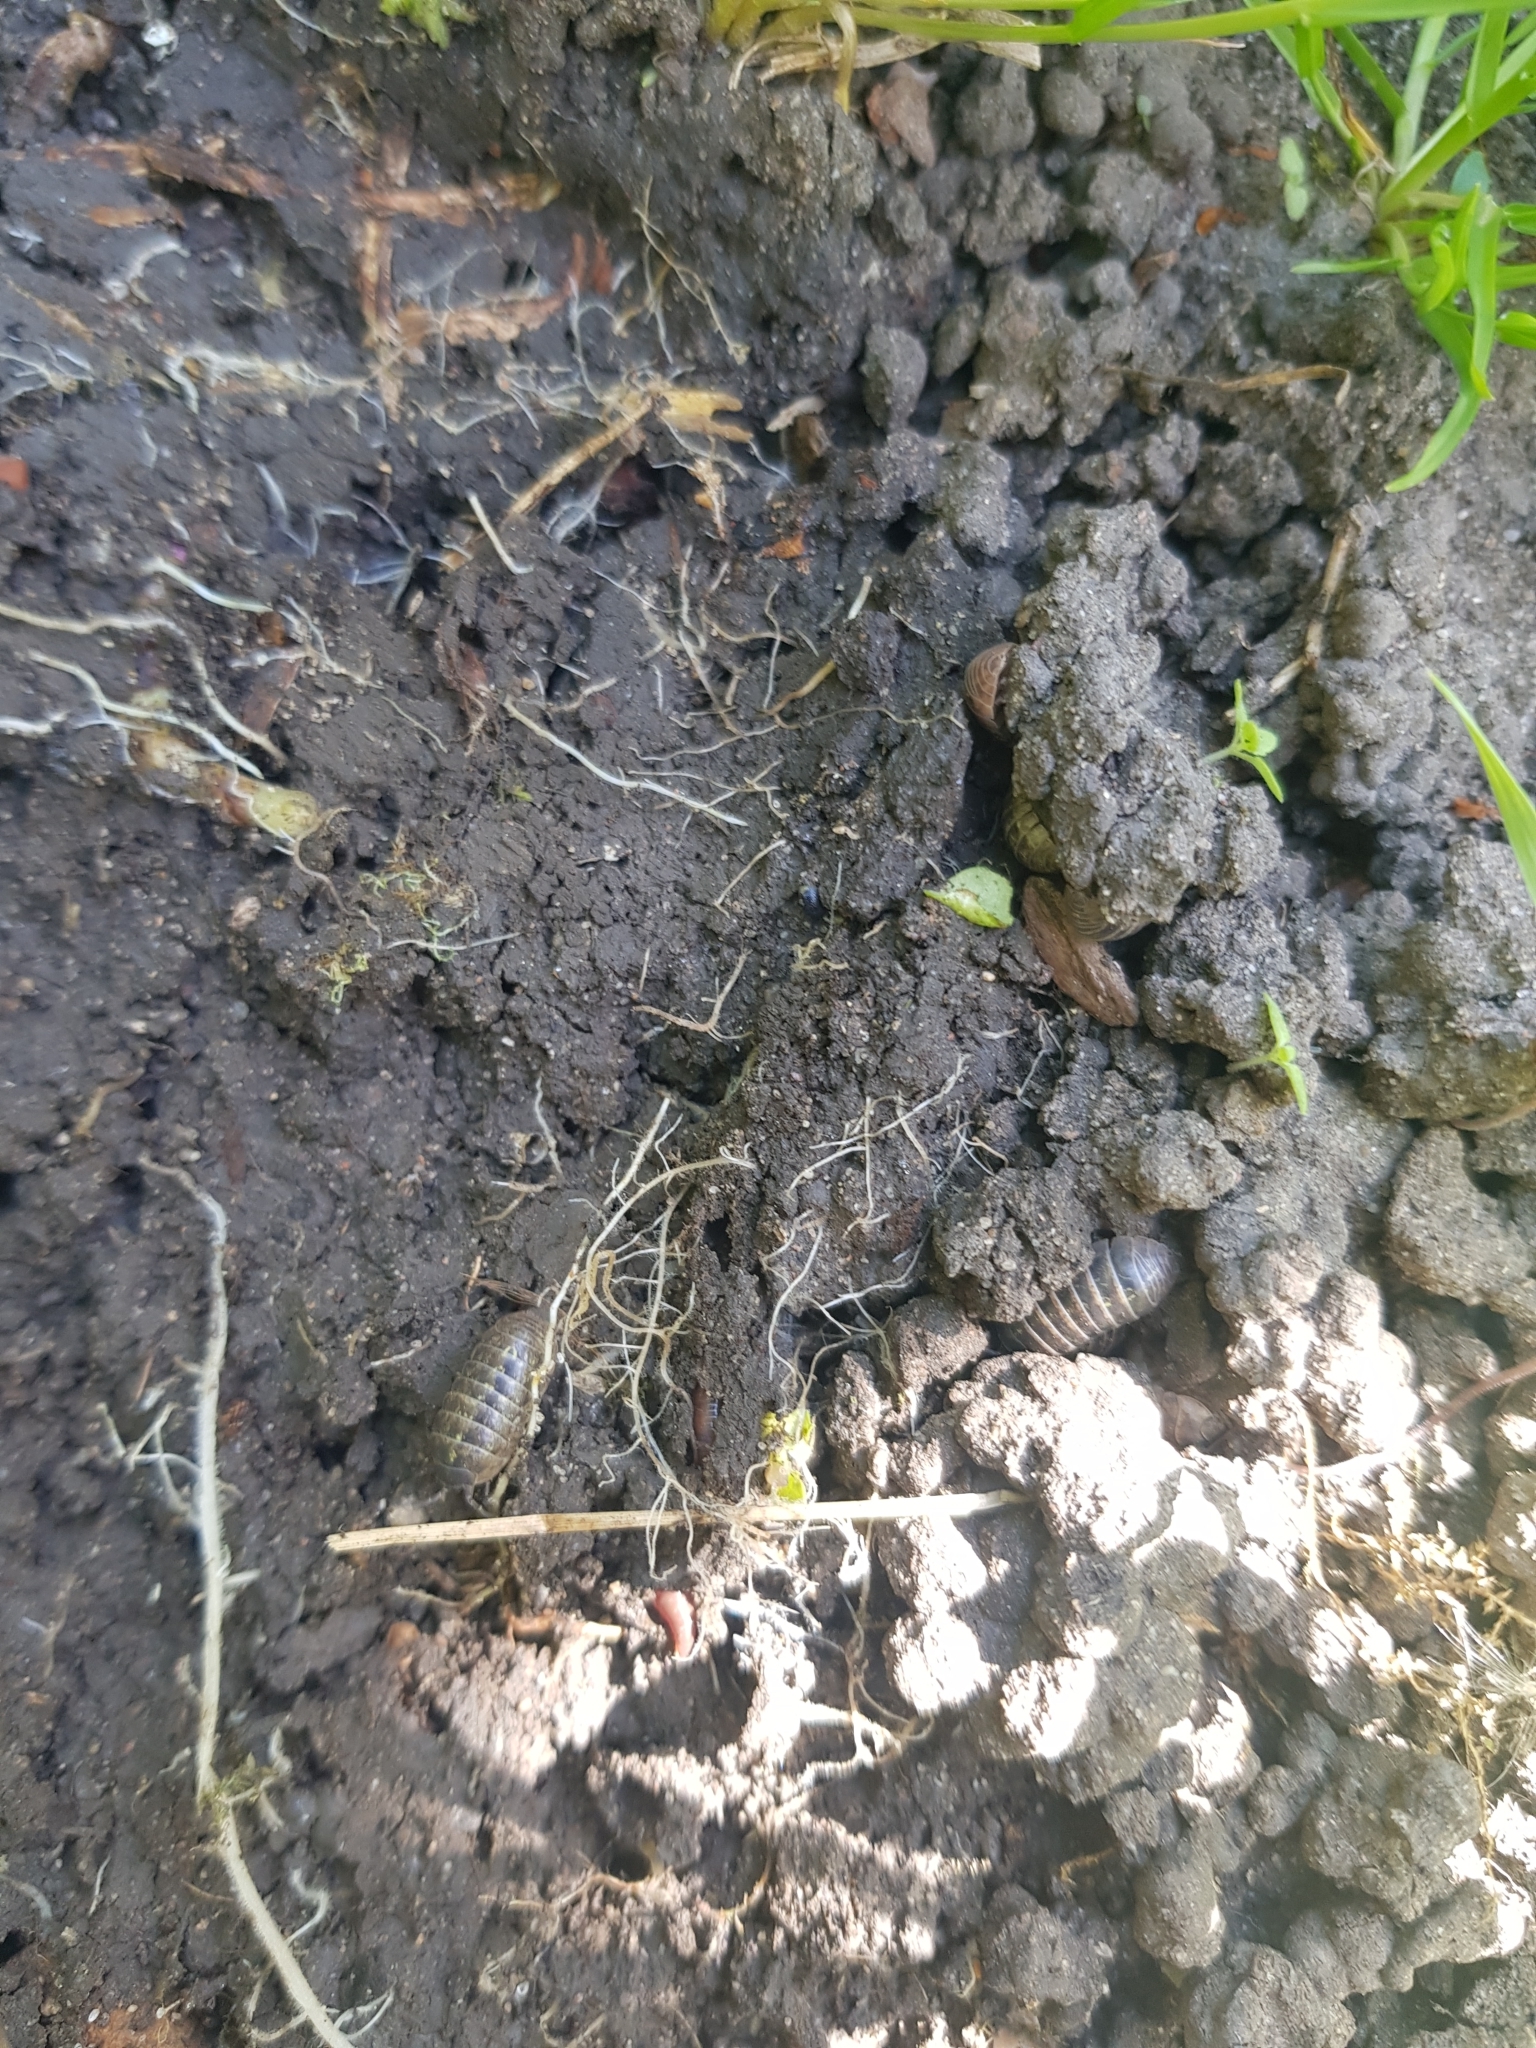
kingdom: Animalia
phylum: Arthropoda
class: Malacostraca
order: Isopoda
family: Armadillidiidae
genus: Armadillidium
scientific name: Armadillidium vulgare
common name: Common pill woodlouse
